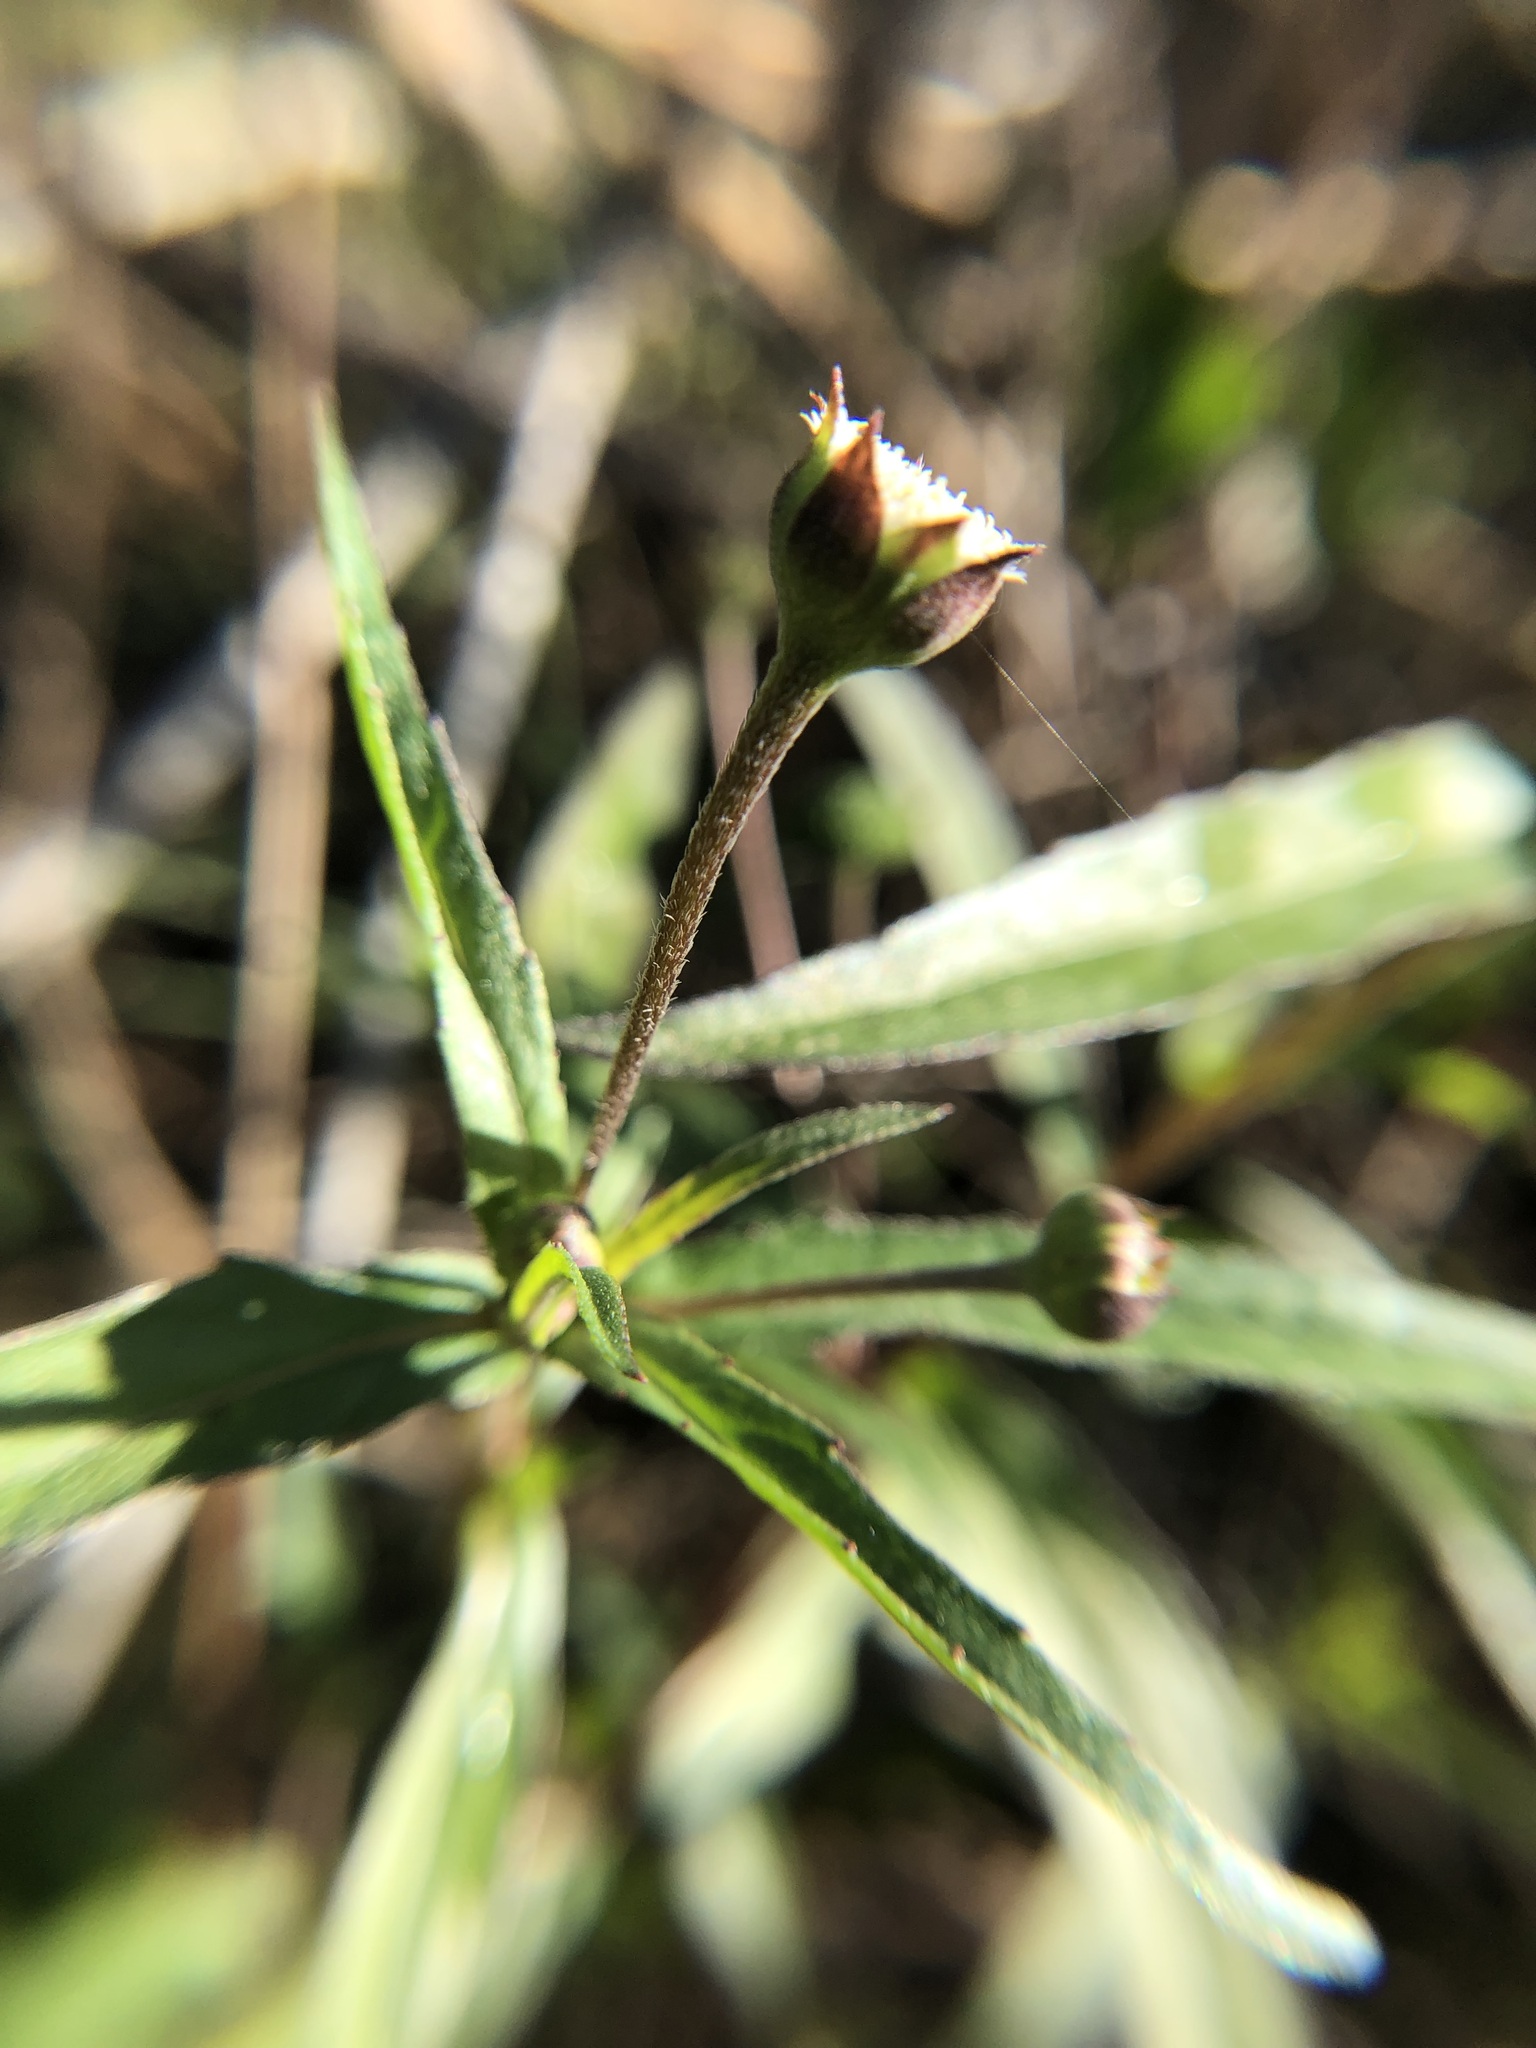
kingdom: Plantae
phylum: Tracheophyta
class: Magnoliopsida
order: Asterales
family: Asteraceae
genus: Eclipta
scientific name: Eclipta prostrata
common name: False daisy
